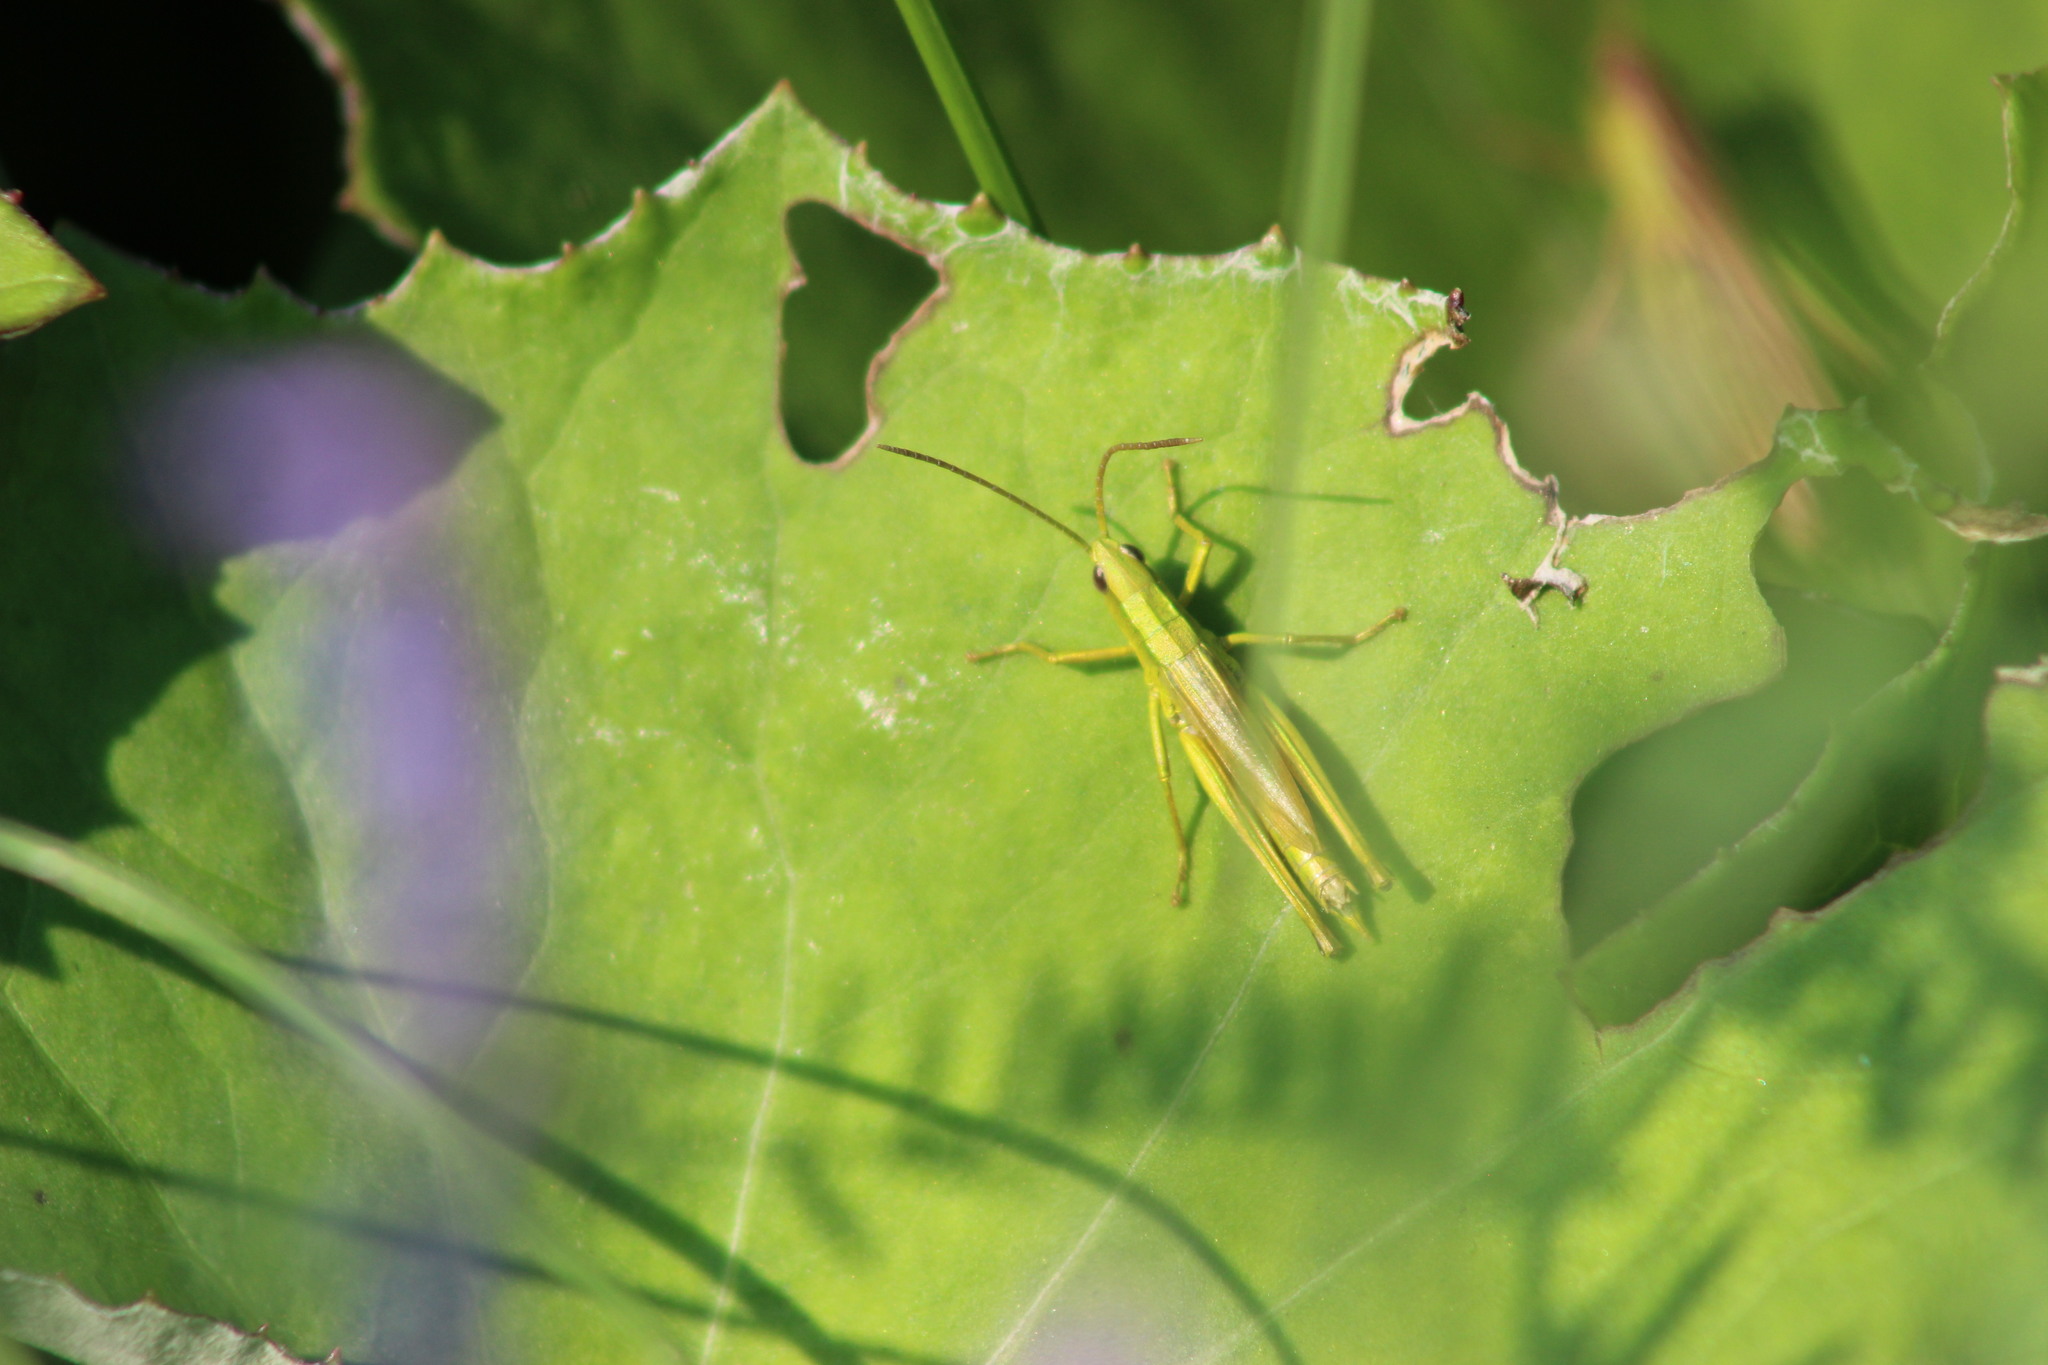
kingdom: Animalia
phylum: Arthropoda
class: Insecta
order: Orthoptera
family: Acrididae
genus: Chrysochraon
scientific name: Chrysochraon dispar
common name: Large gold grasshopper
